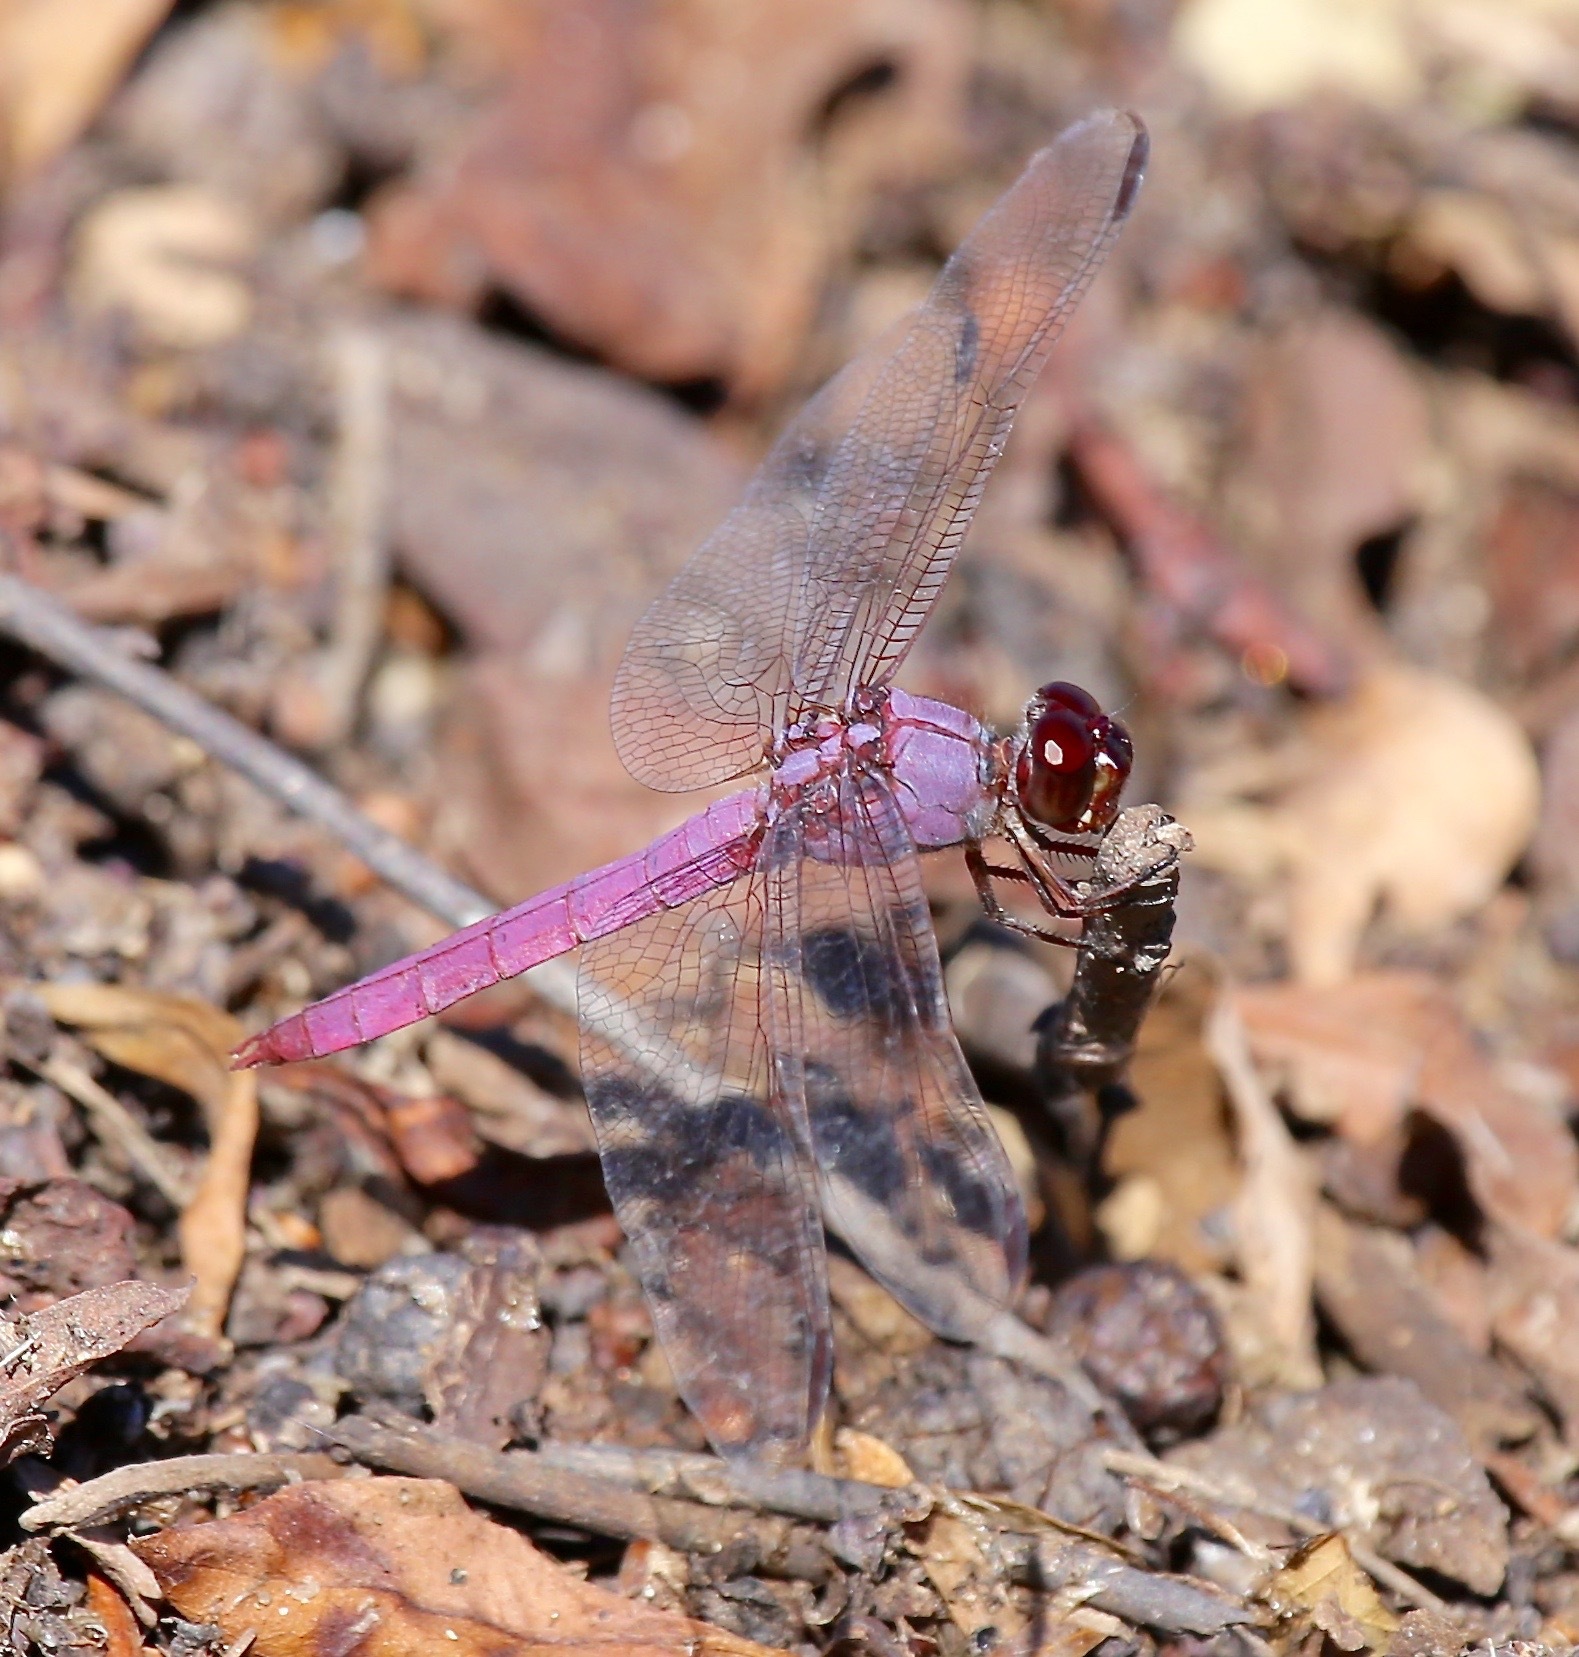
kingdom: Animalia
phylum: Arthropoda
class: Insecta
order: Odonata
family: Libellulidae
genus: Orthemis
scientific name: Orthemis ferruginea
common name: Roseate skimmer
